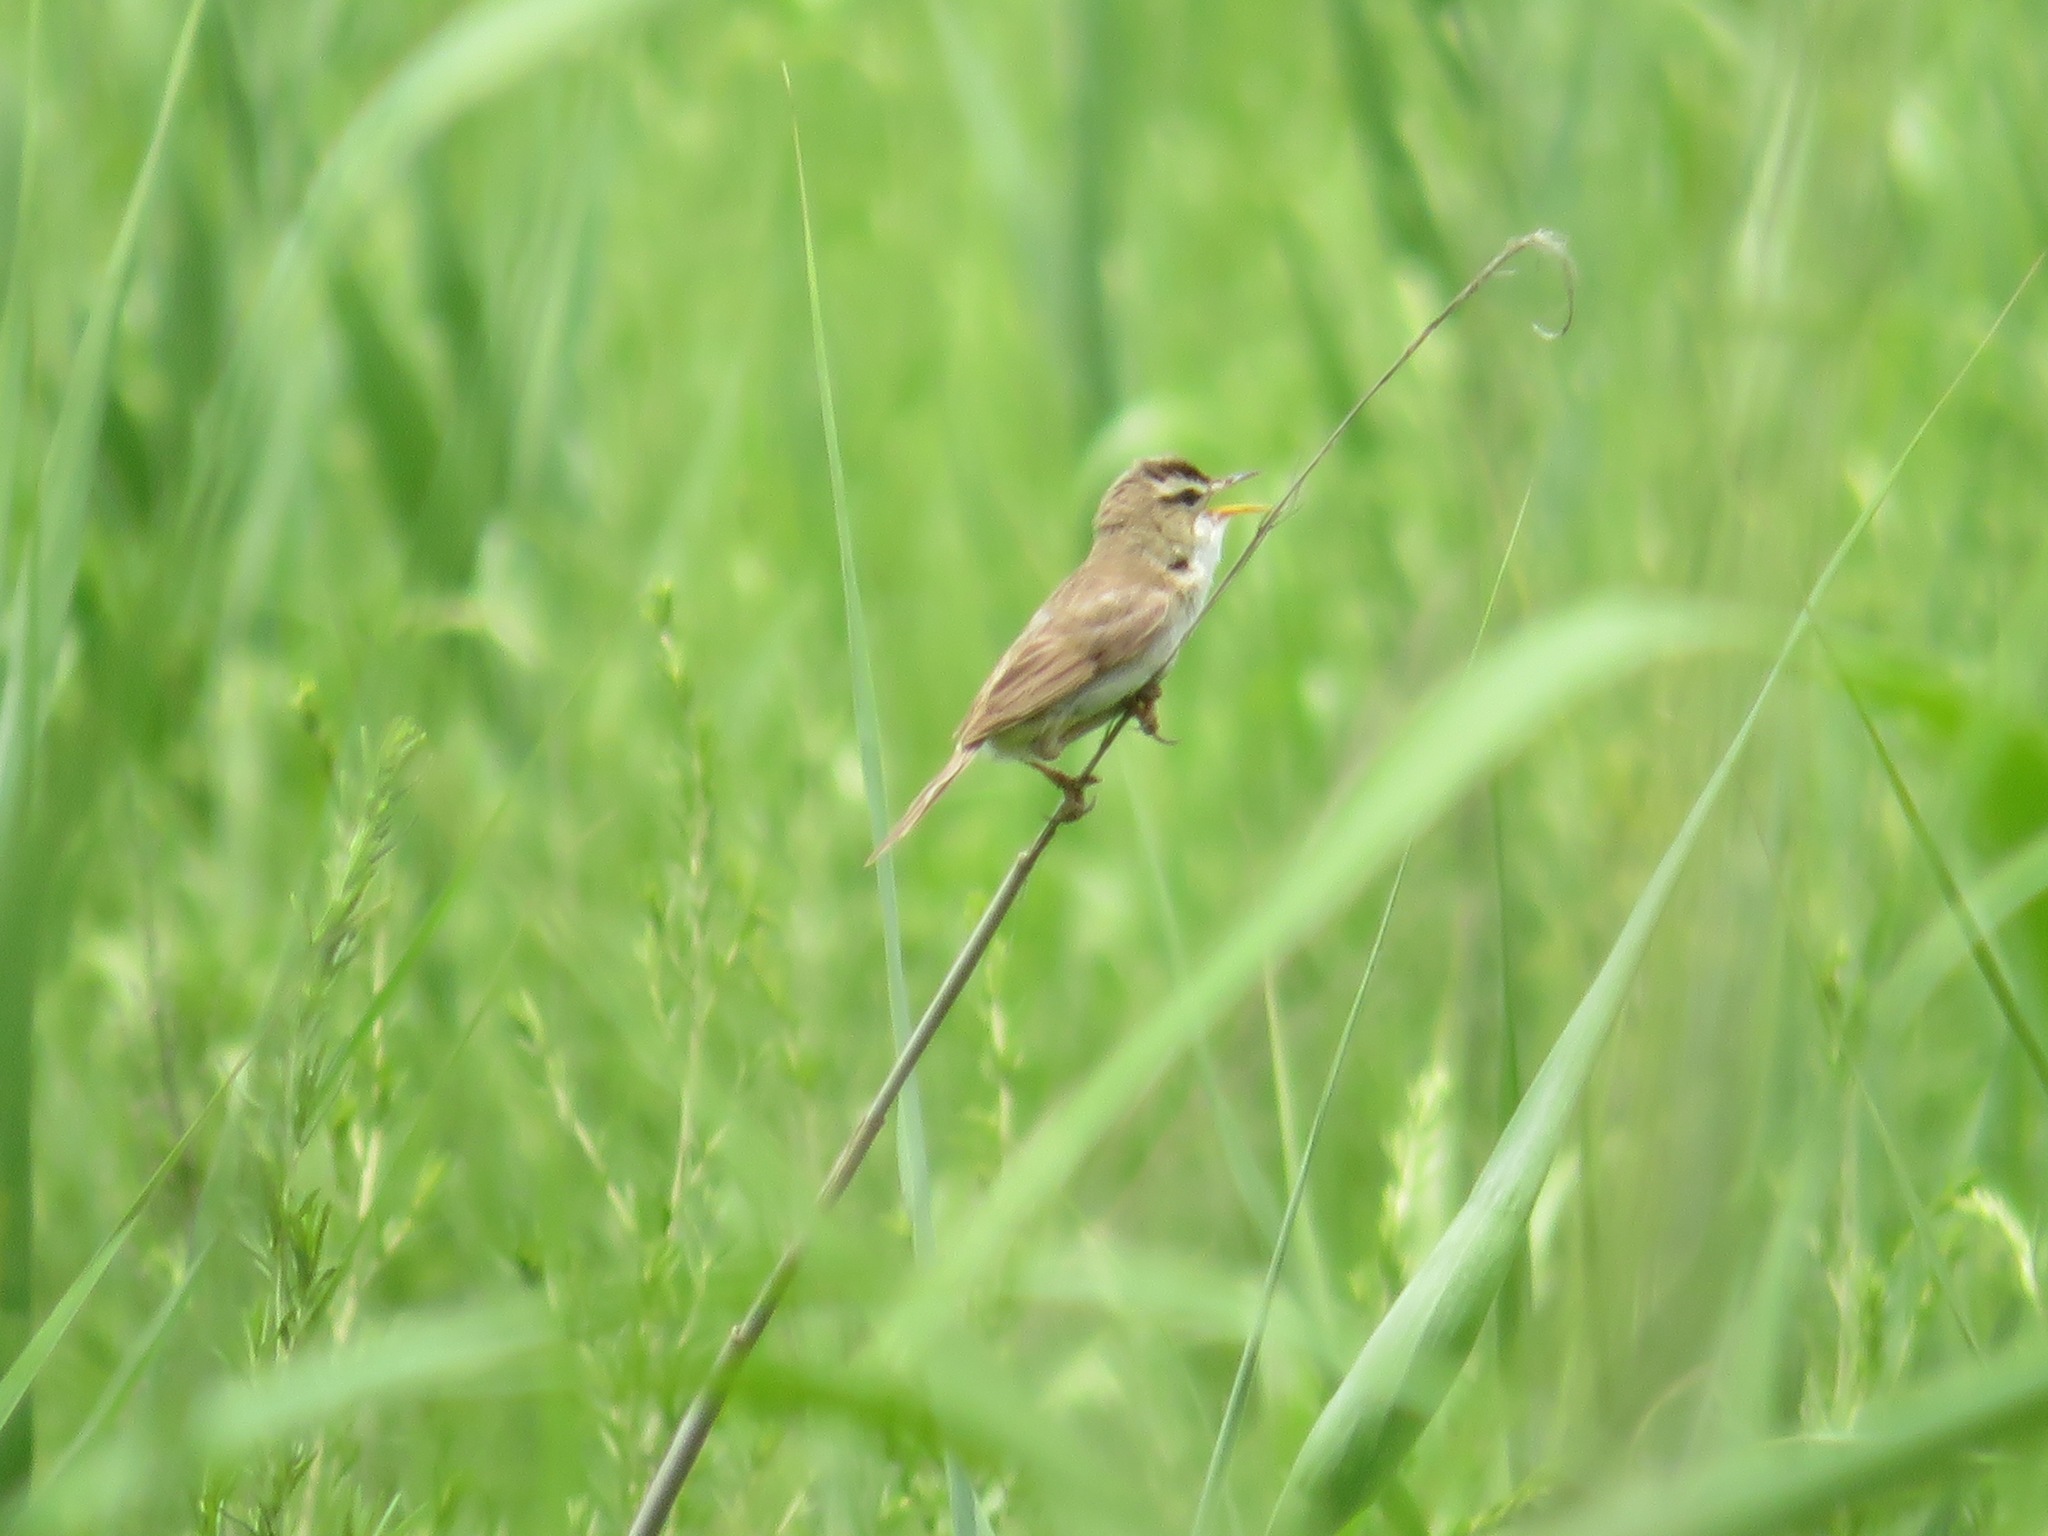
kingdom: Animalia
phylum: Chordata
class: Aves
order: Passeriformes
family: Acrocephalidae
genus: Acrocephalus
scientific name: Acrocephalus bistrigiceps
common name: Black-browed reed warbler
